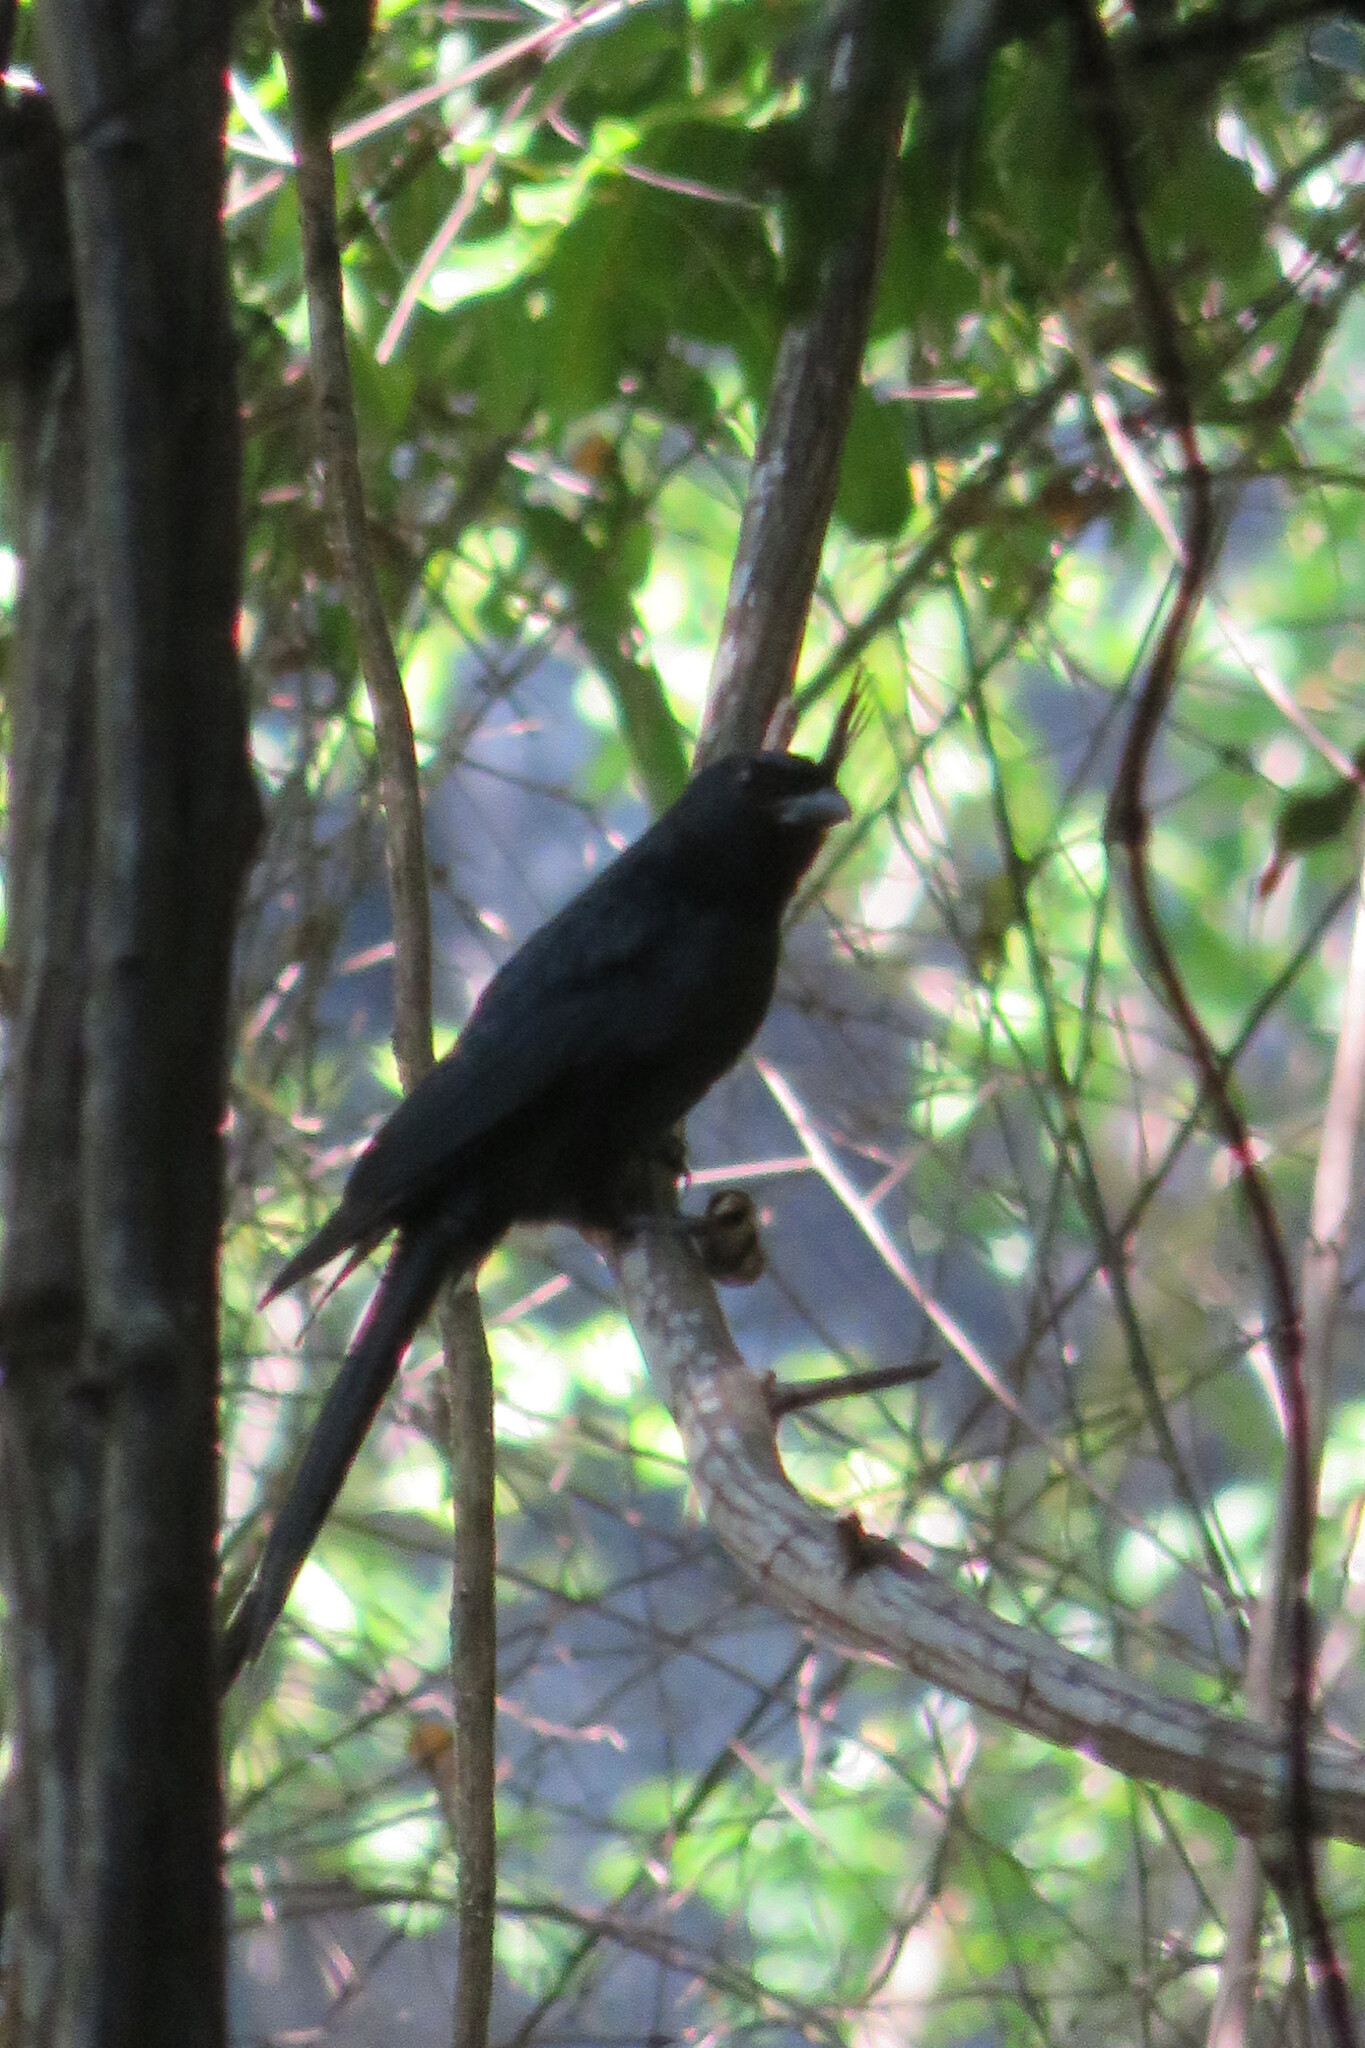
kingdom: Animalia
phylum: Chordata
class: Aves
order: Passeriformes
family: Dicruridae
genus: Dicrurus
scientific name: Dicrurus forficatus
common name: Crested drongo
